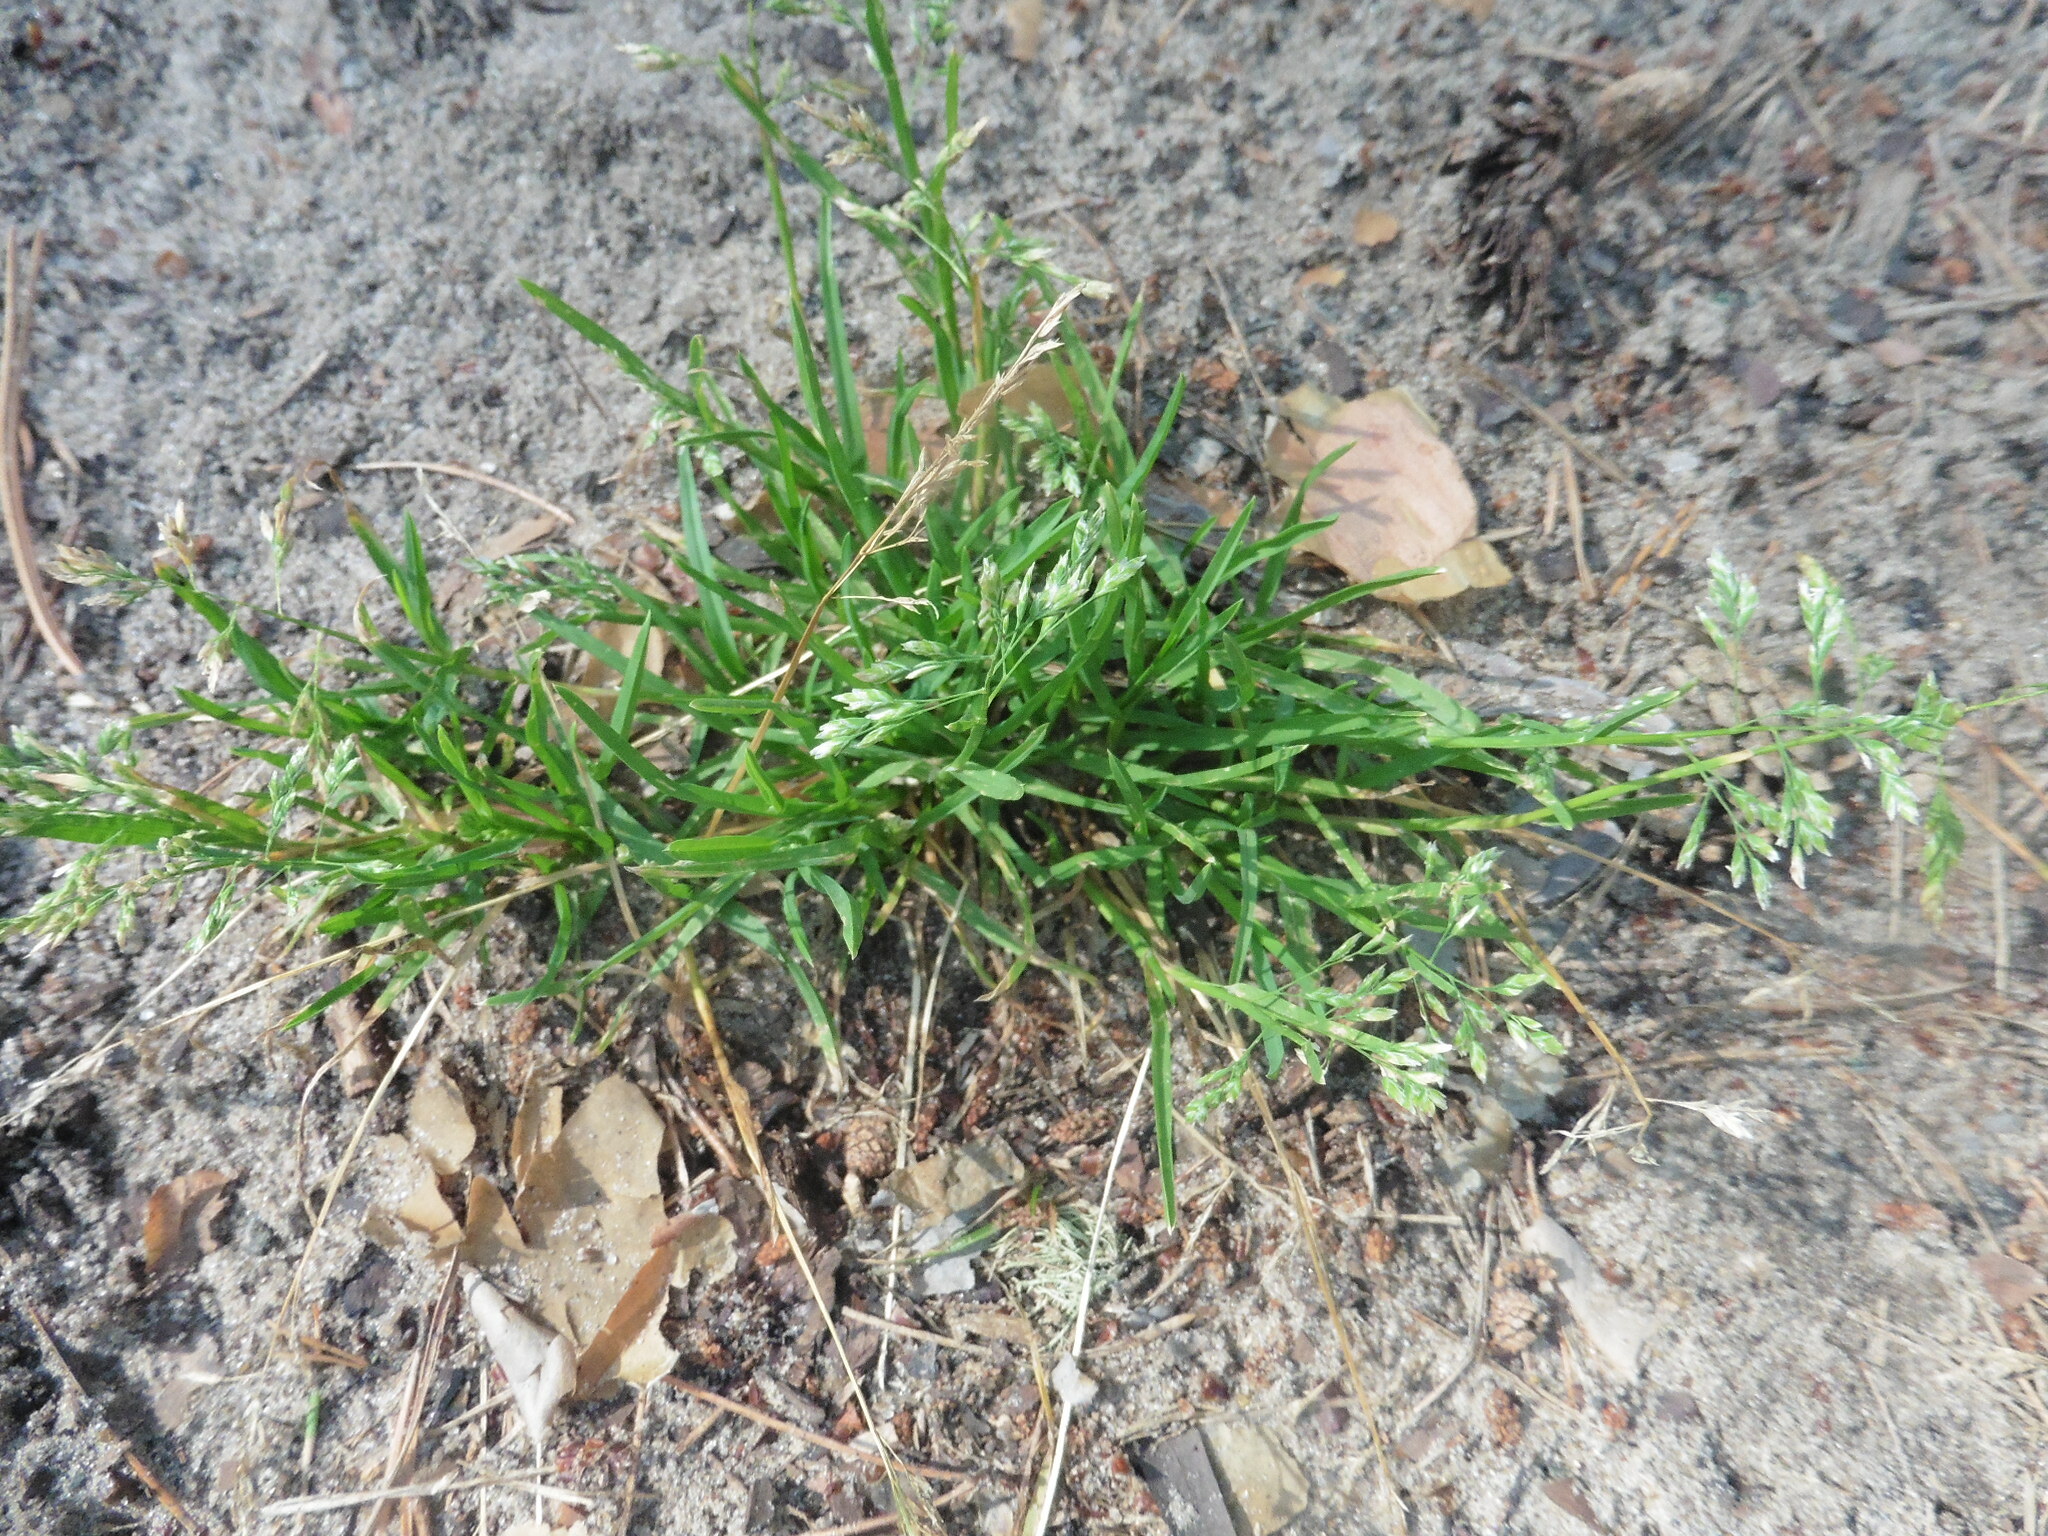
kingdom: Plantae
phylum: Tracheophyta
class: Liliopsida
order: Poales
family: Poaceae
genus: Poa
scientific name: Poa annua
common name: Annual bluegrass
